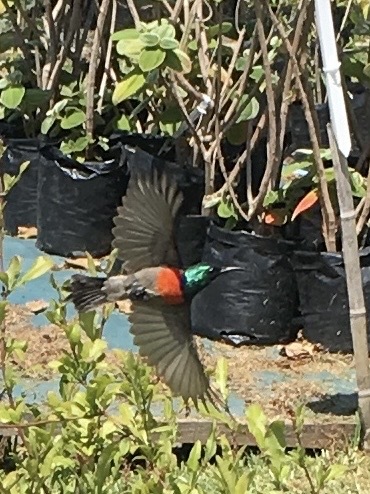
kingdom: Animalia
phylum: Chordata
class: Aves
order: Passeriformes
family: Nectariniidae
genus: Cinnyris
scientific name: Cinnyris afer
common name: Greater double-collared sunbird
